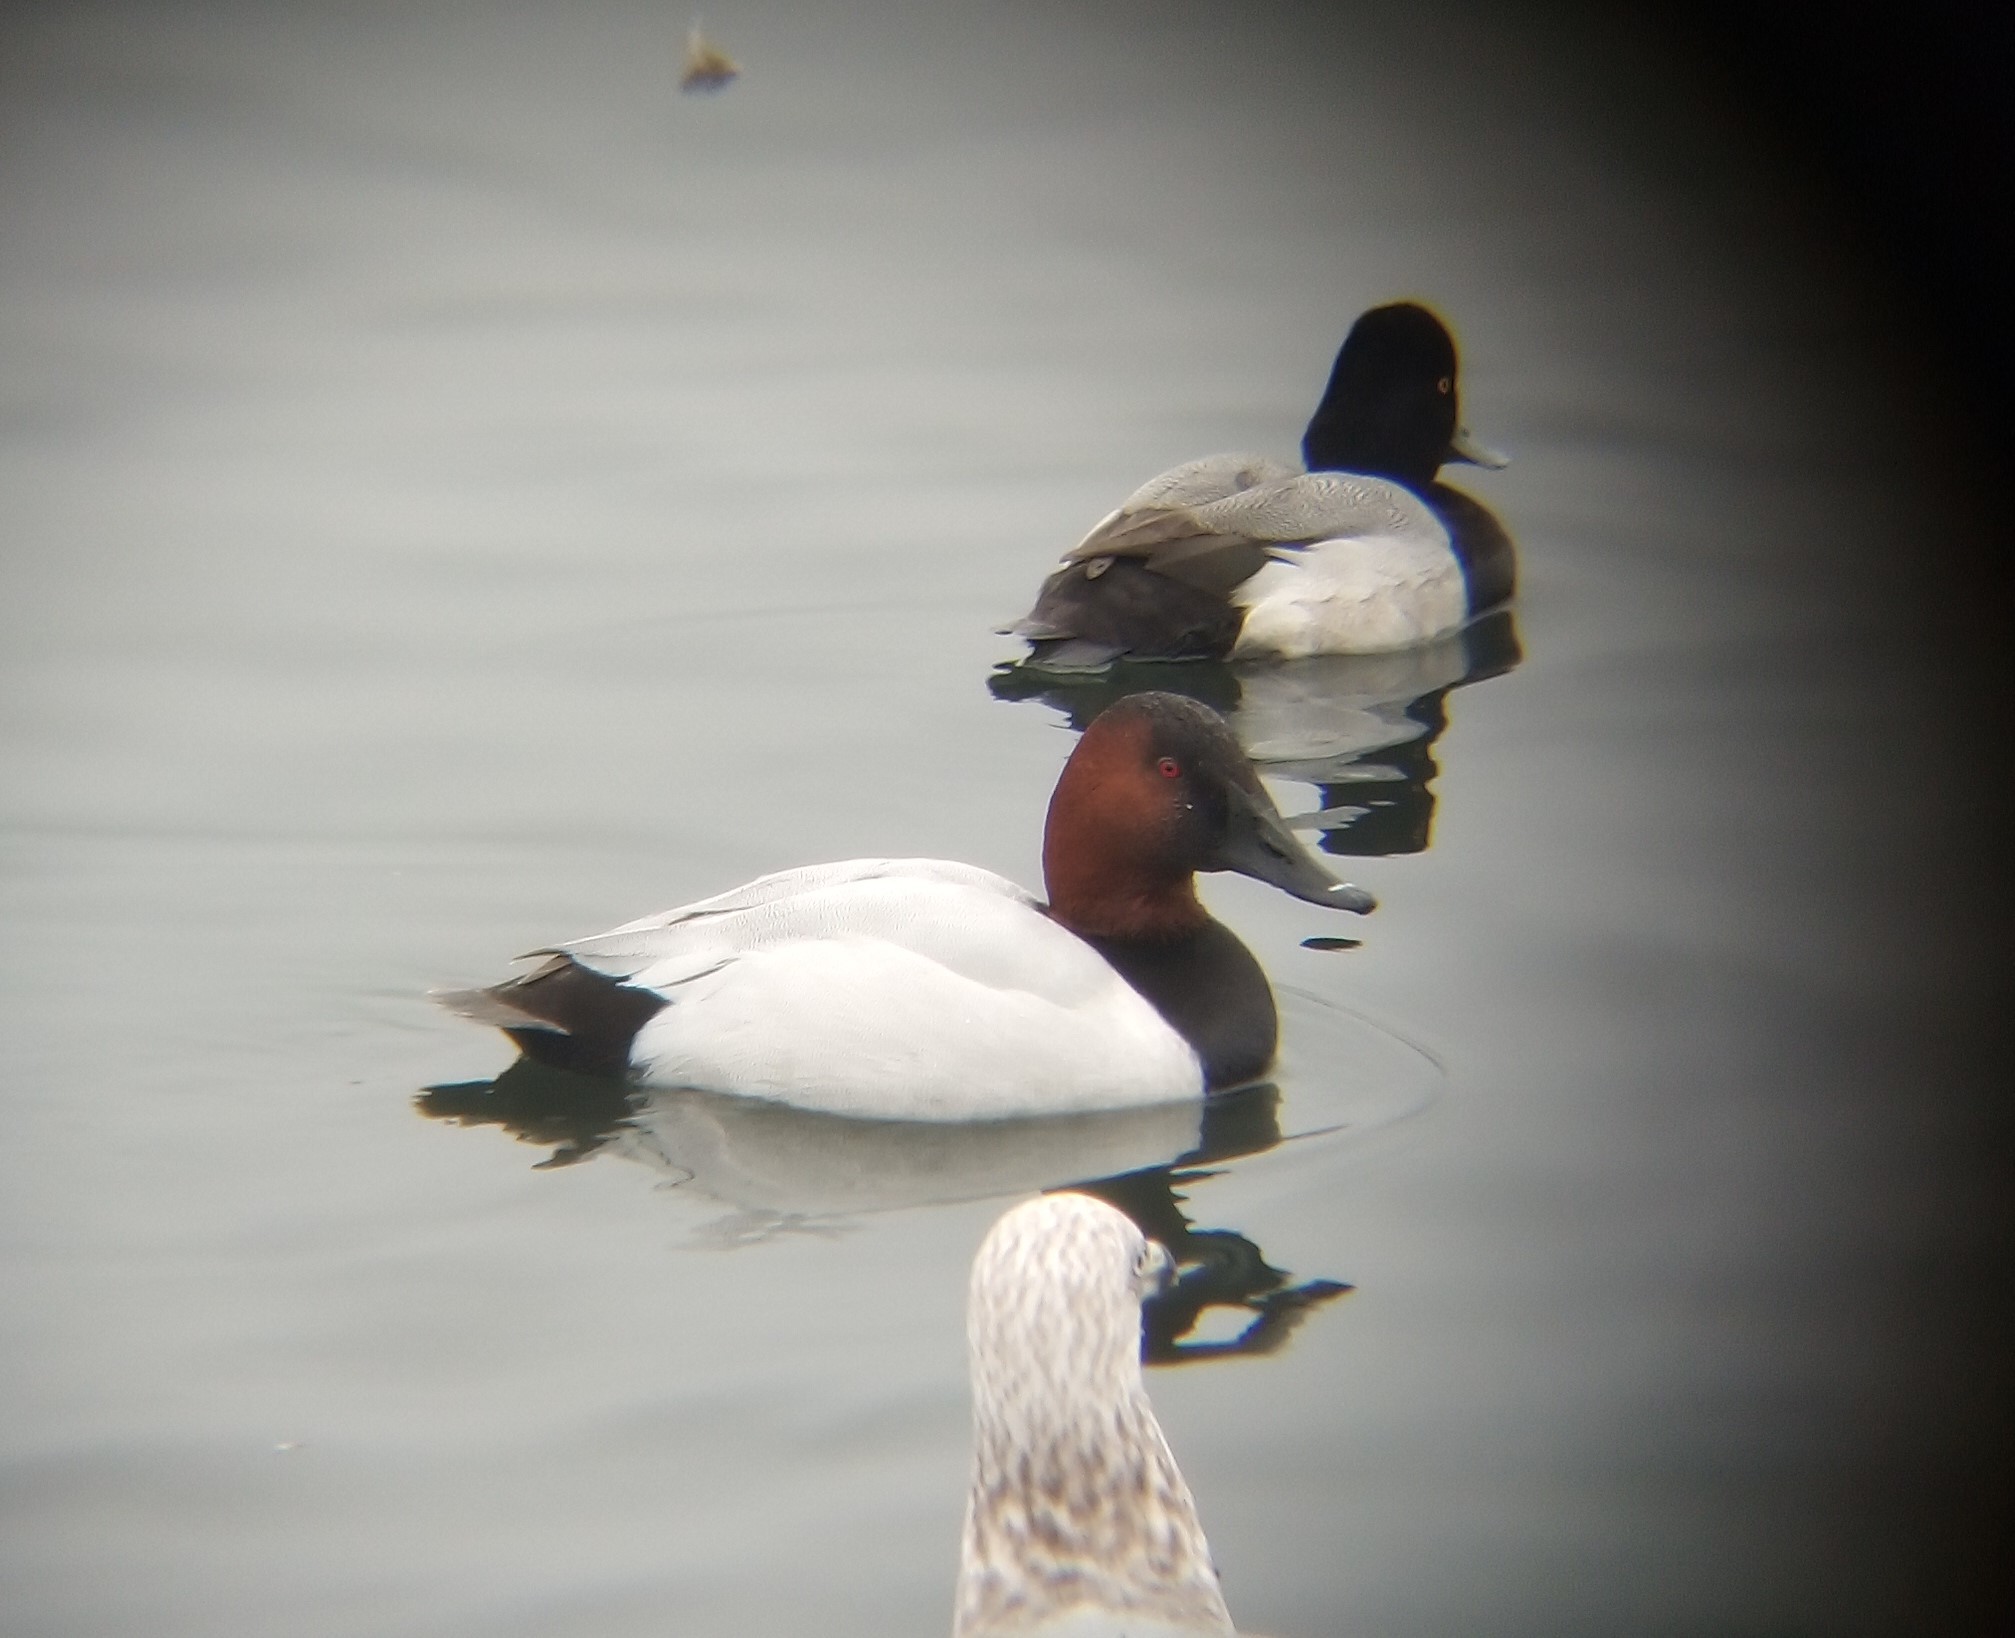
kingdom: Animalia
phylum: Chordata
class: Aves
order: Anseriformes
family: Anatidae
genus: Aythya
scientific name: Aythya valisineria
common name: Canvasback
